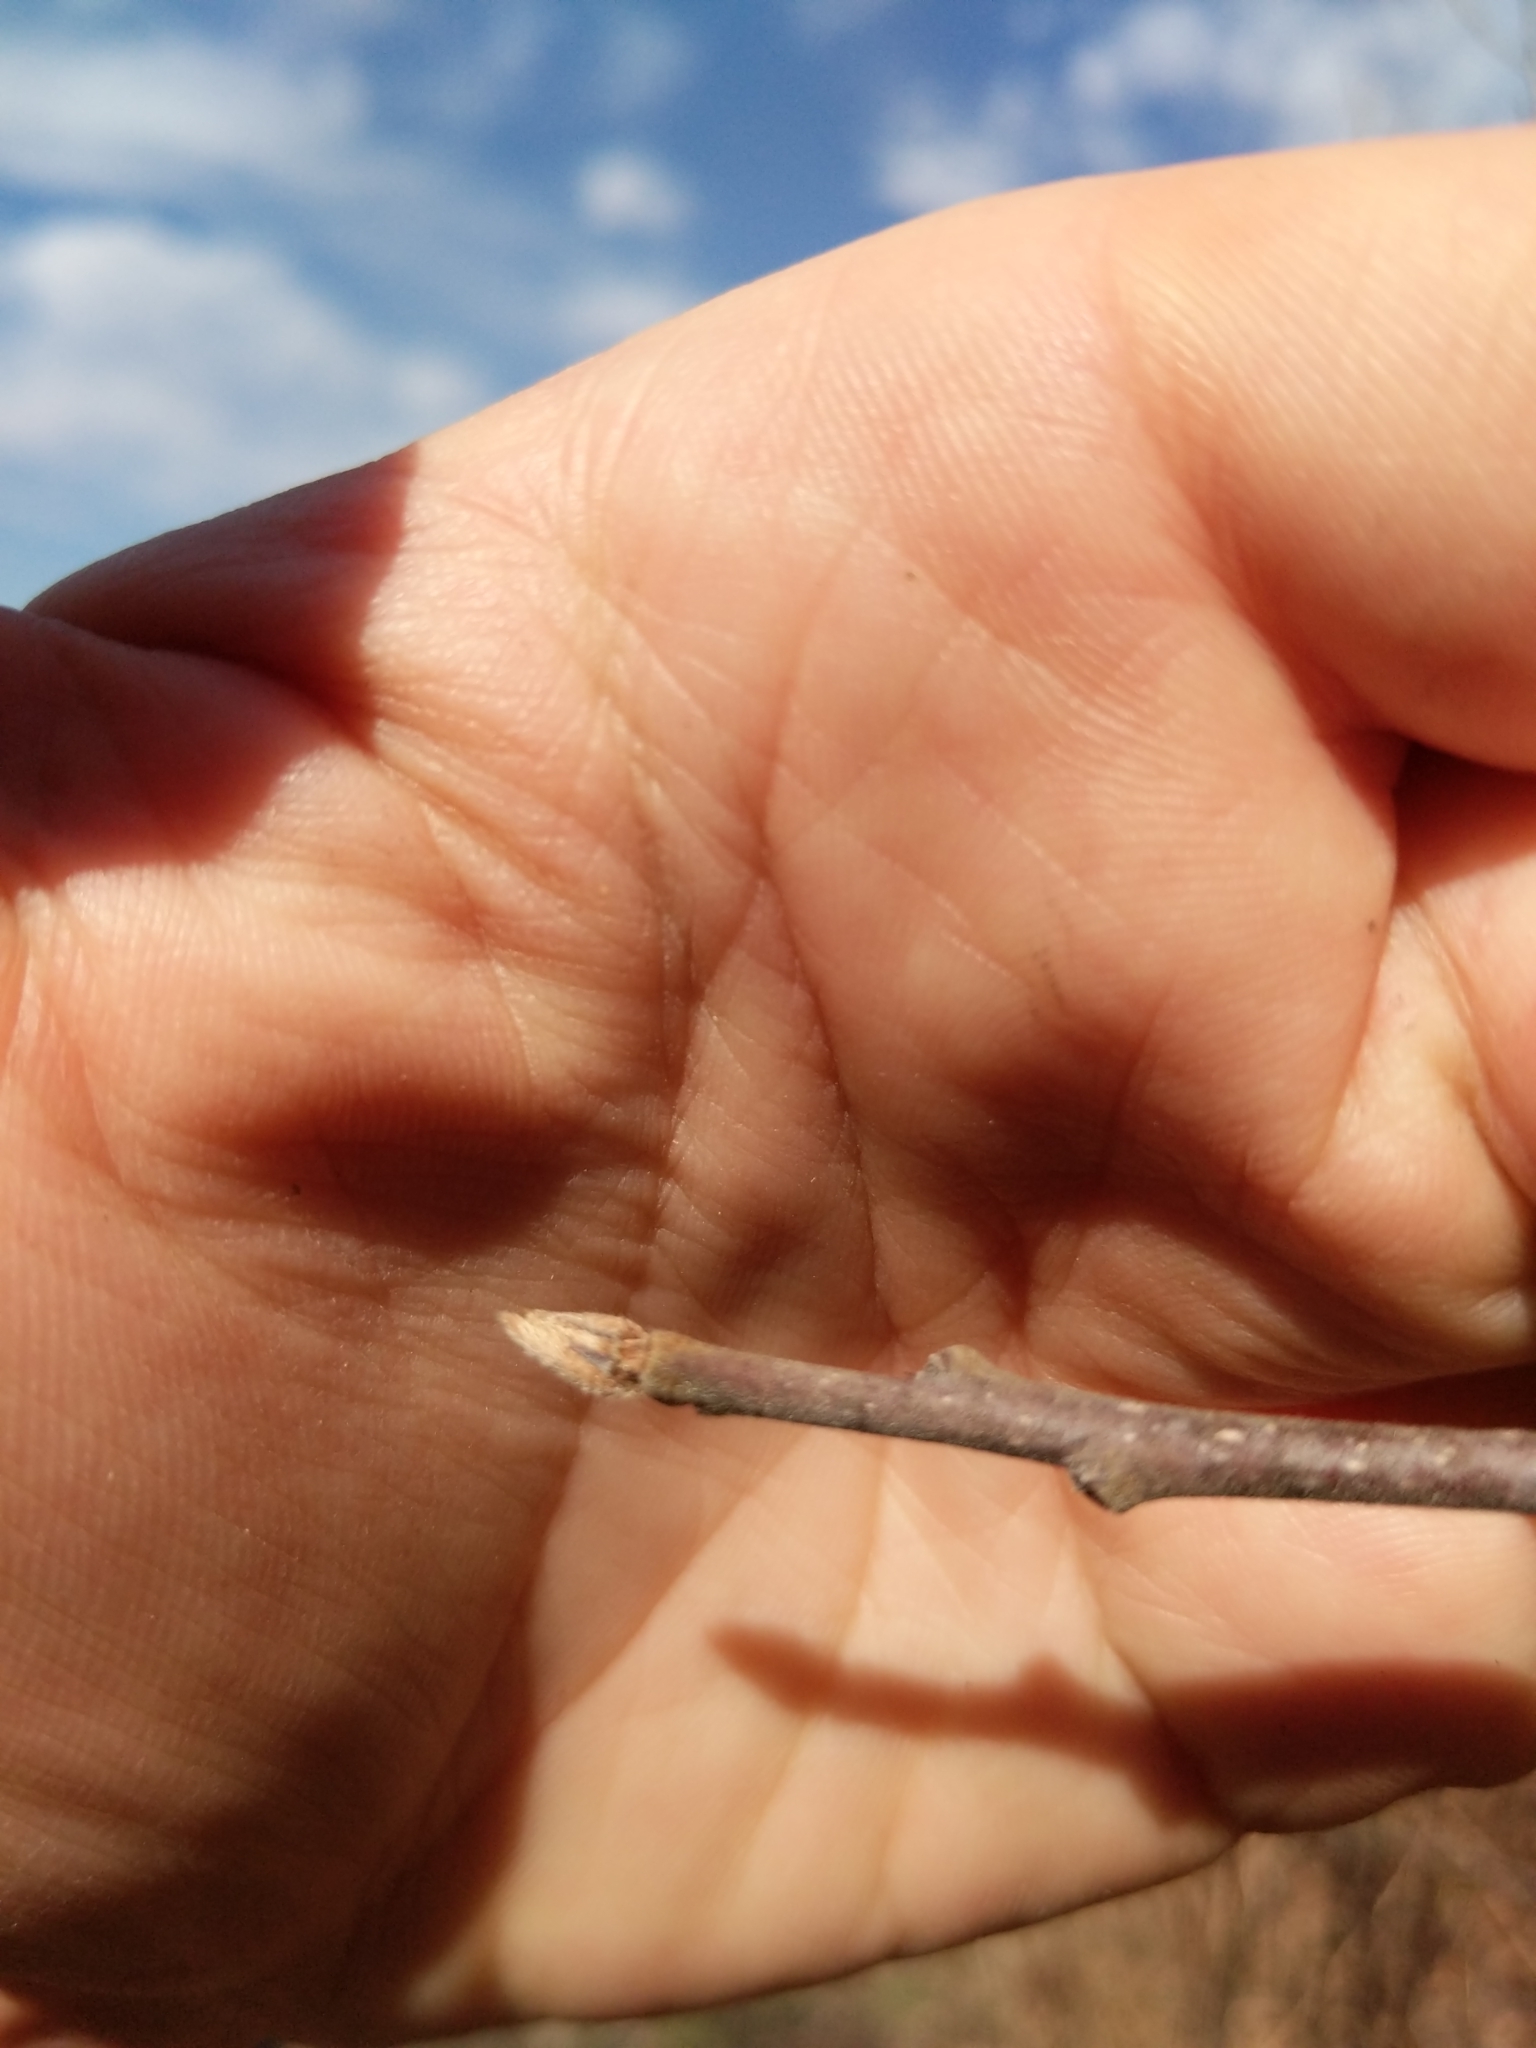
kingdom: Plantae
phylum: Tracheophyta
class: Magnoliopsida
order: Rosales
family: Rhamnaceae
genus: Frangula
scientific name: Frangula alnus
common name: Alder buckthorn
